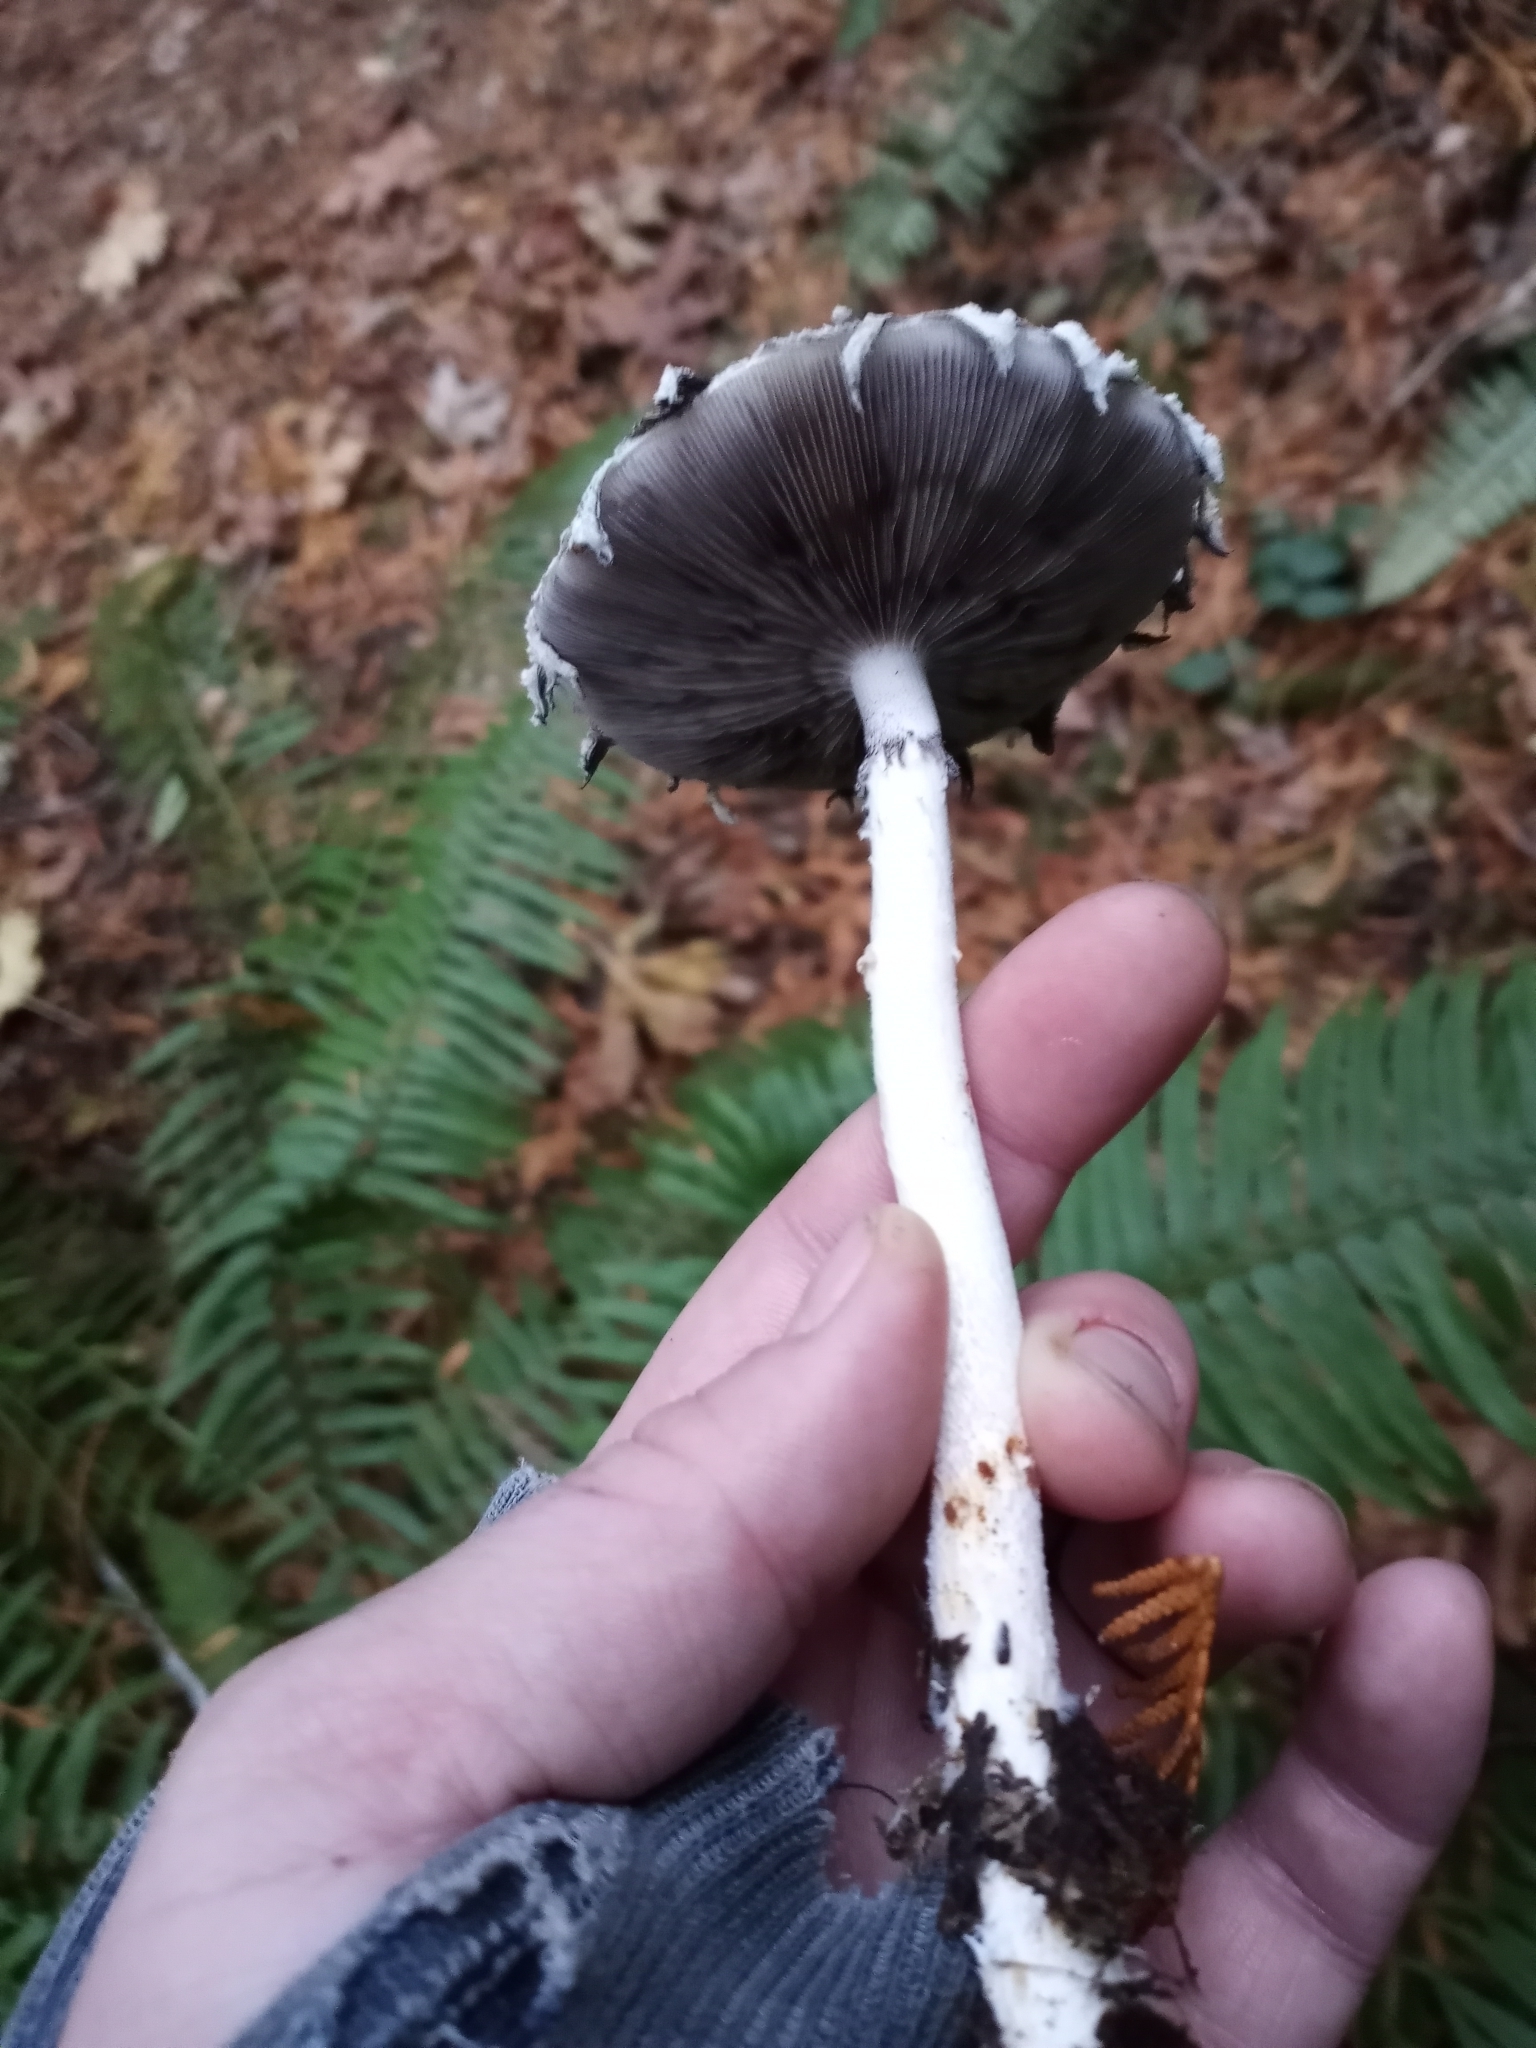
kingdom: Fungi
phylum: Basidiomycota
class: Agaricomycetes
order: Agaricales
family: Strophariaceae
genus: Stropharia
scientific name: Stropharia ambigua
